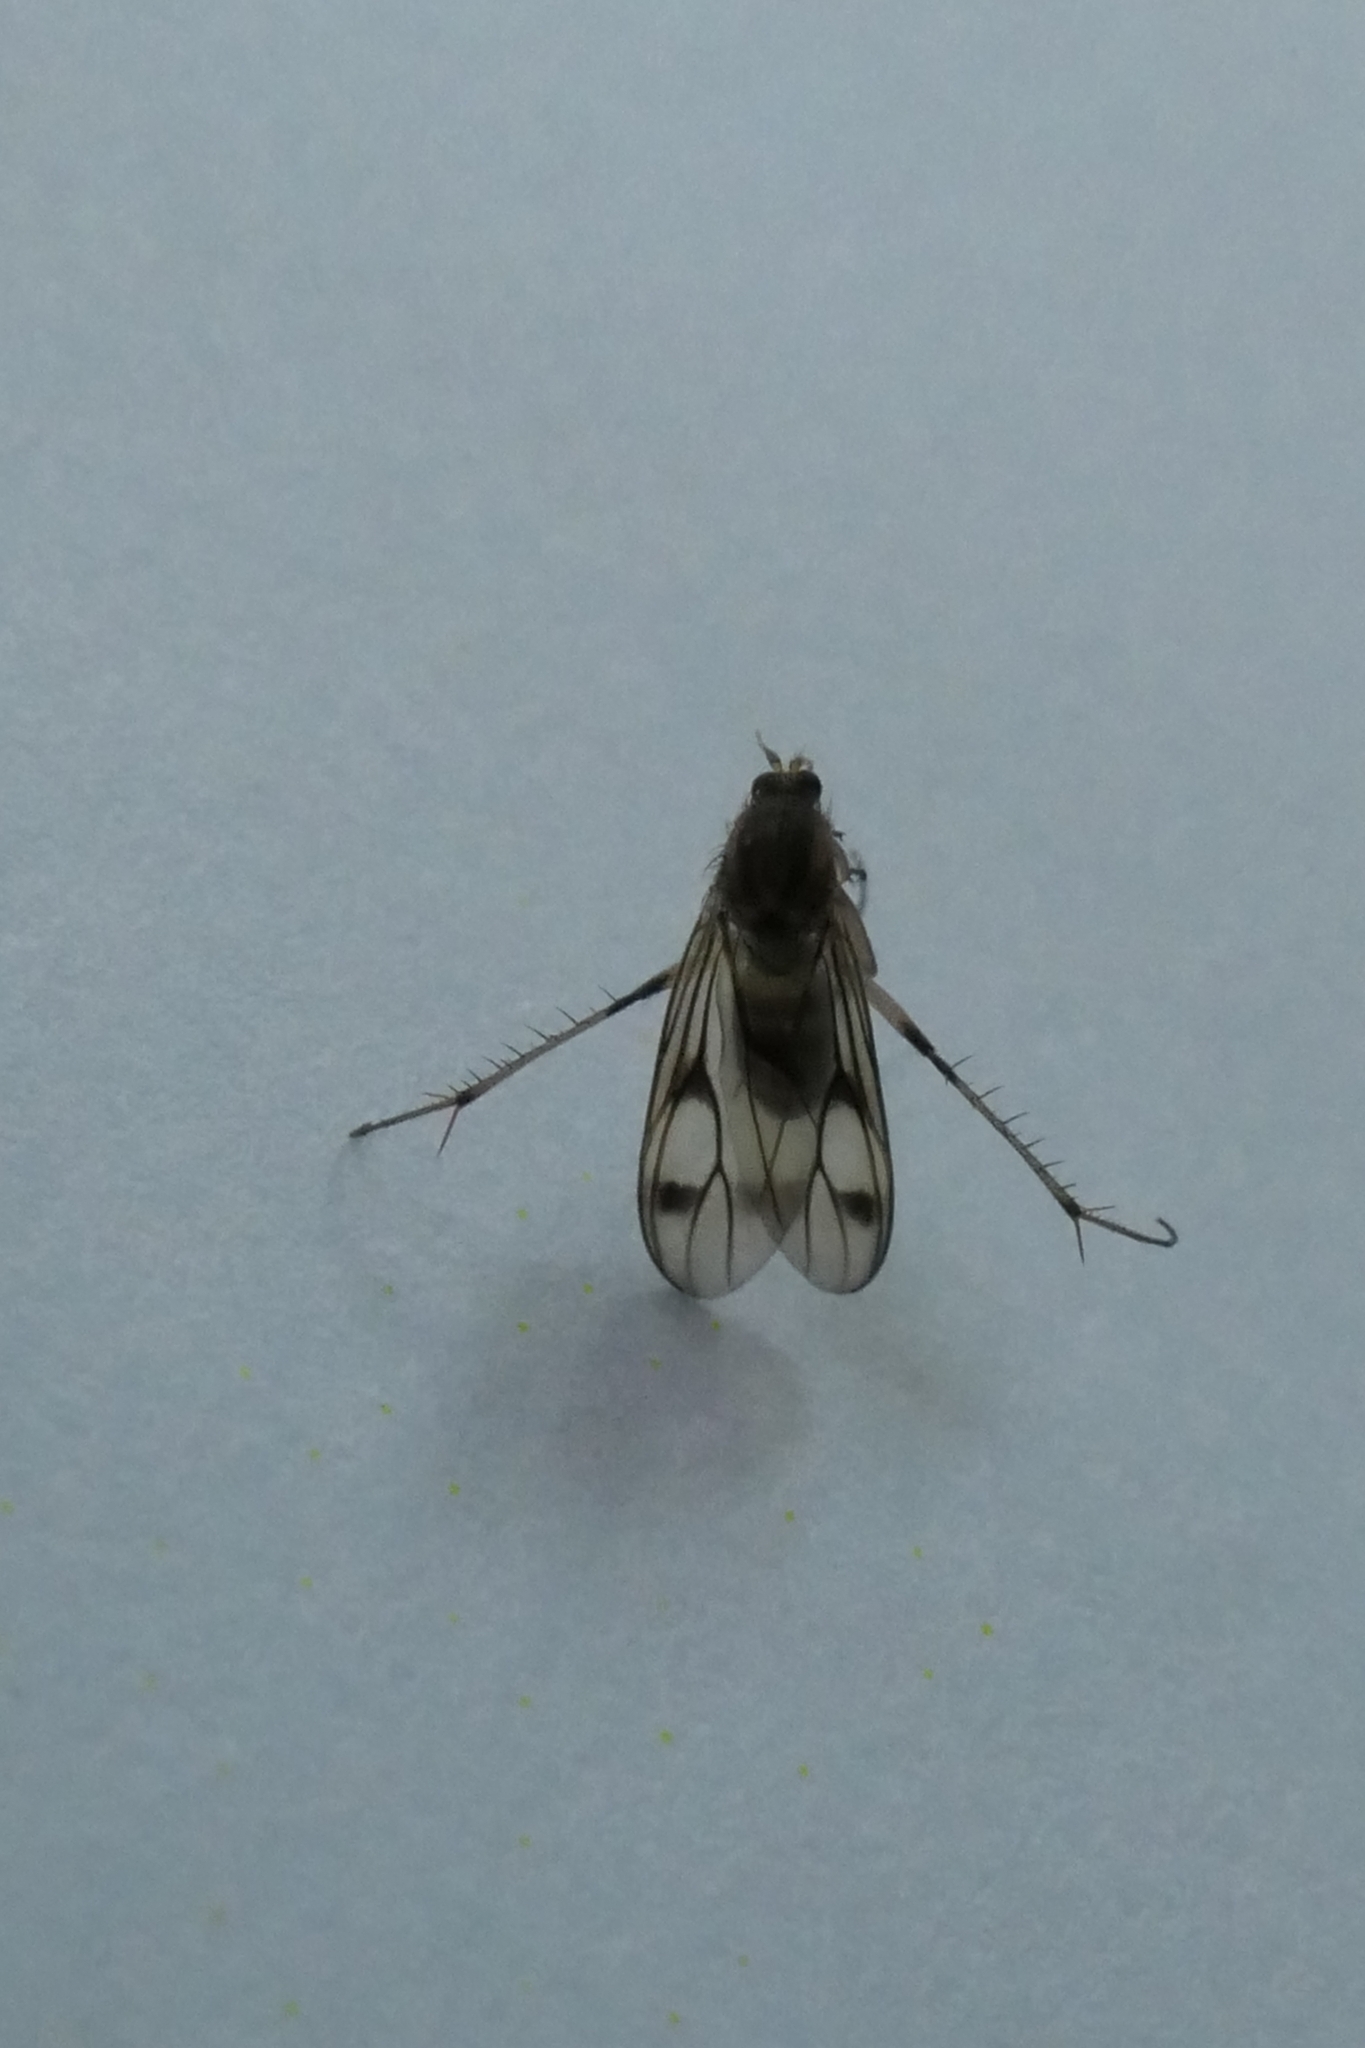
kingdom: Animalia
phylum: Arthropoda
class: Insecta
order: Diptera
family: Mycetophilidae
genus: Anomalomyia
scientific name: Anomalomyia guttata
